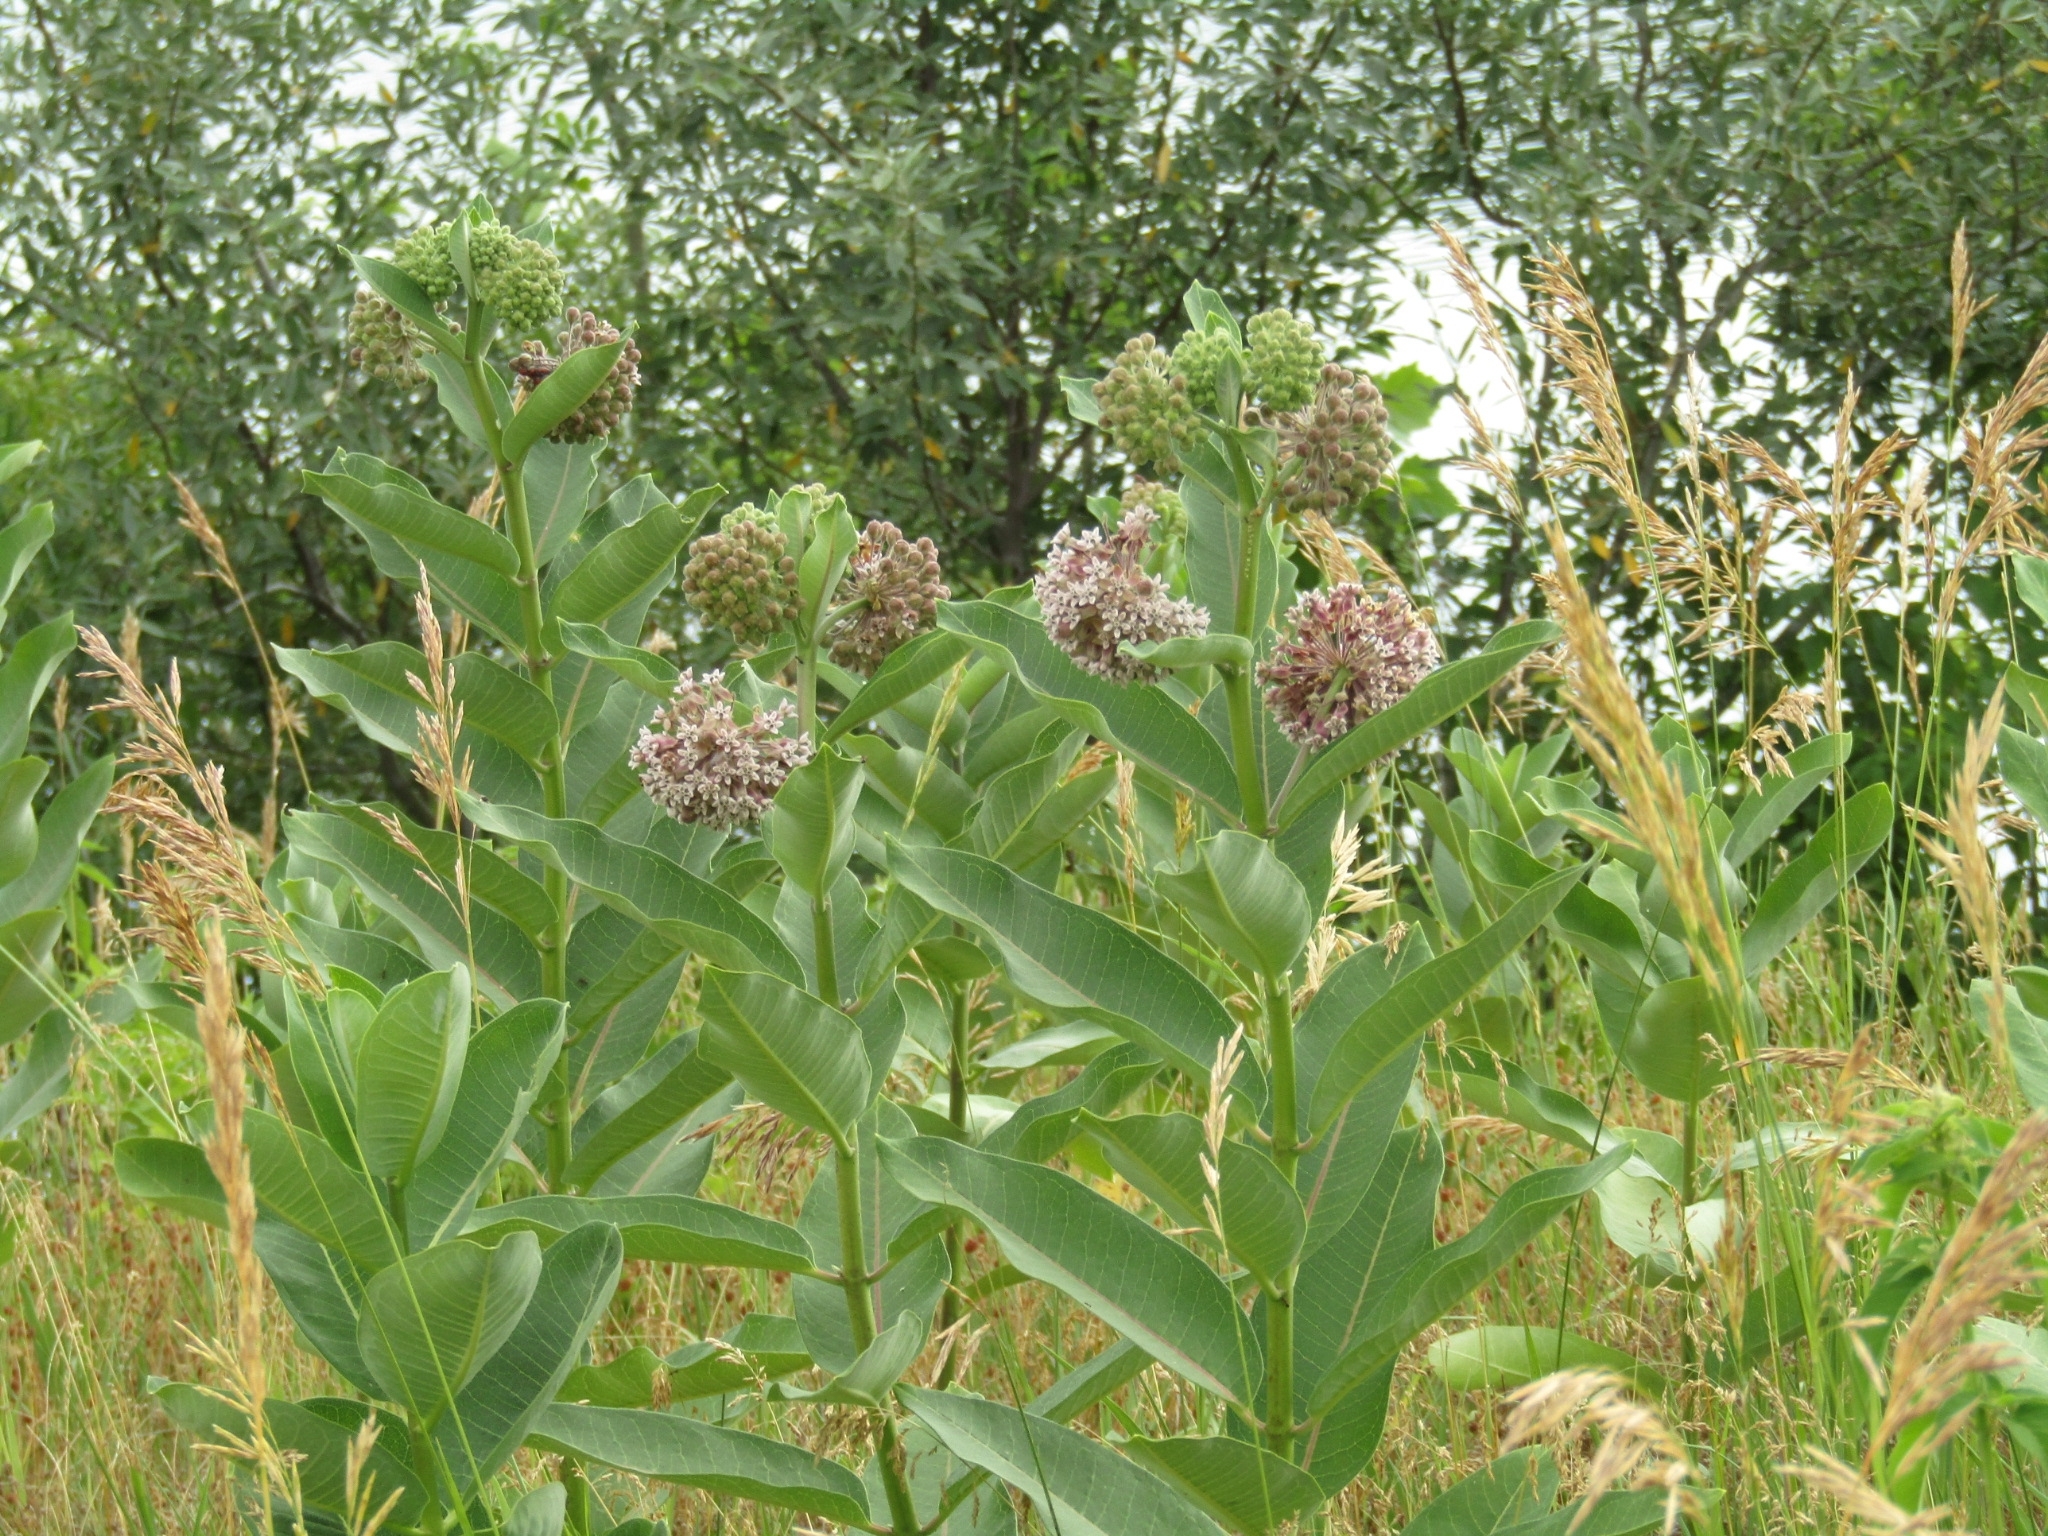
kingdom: Plantae
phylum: Tracheophyta
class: Magnoliopsida
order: Gentianales
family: Apocynaceae
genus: Asclepias
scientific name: Asclepias syriaca
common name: Common milkweed
